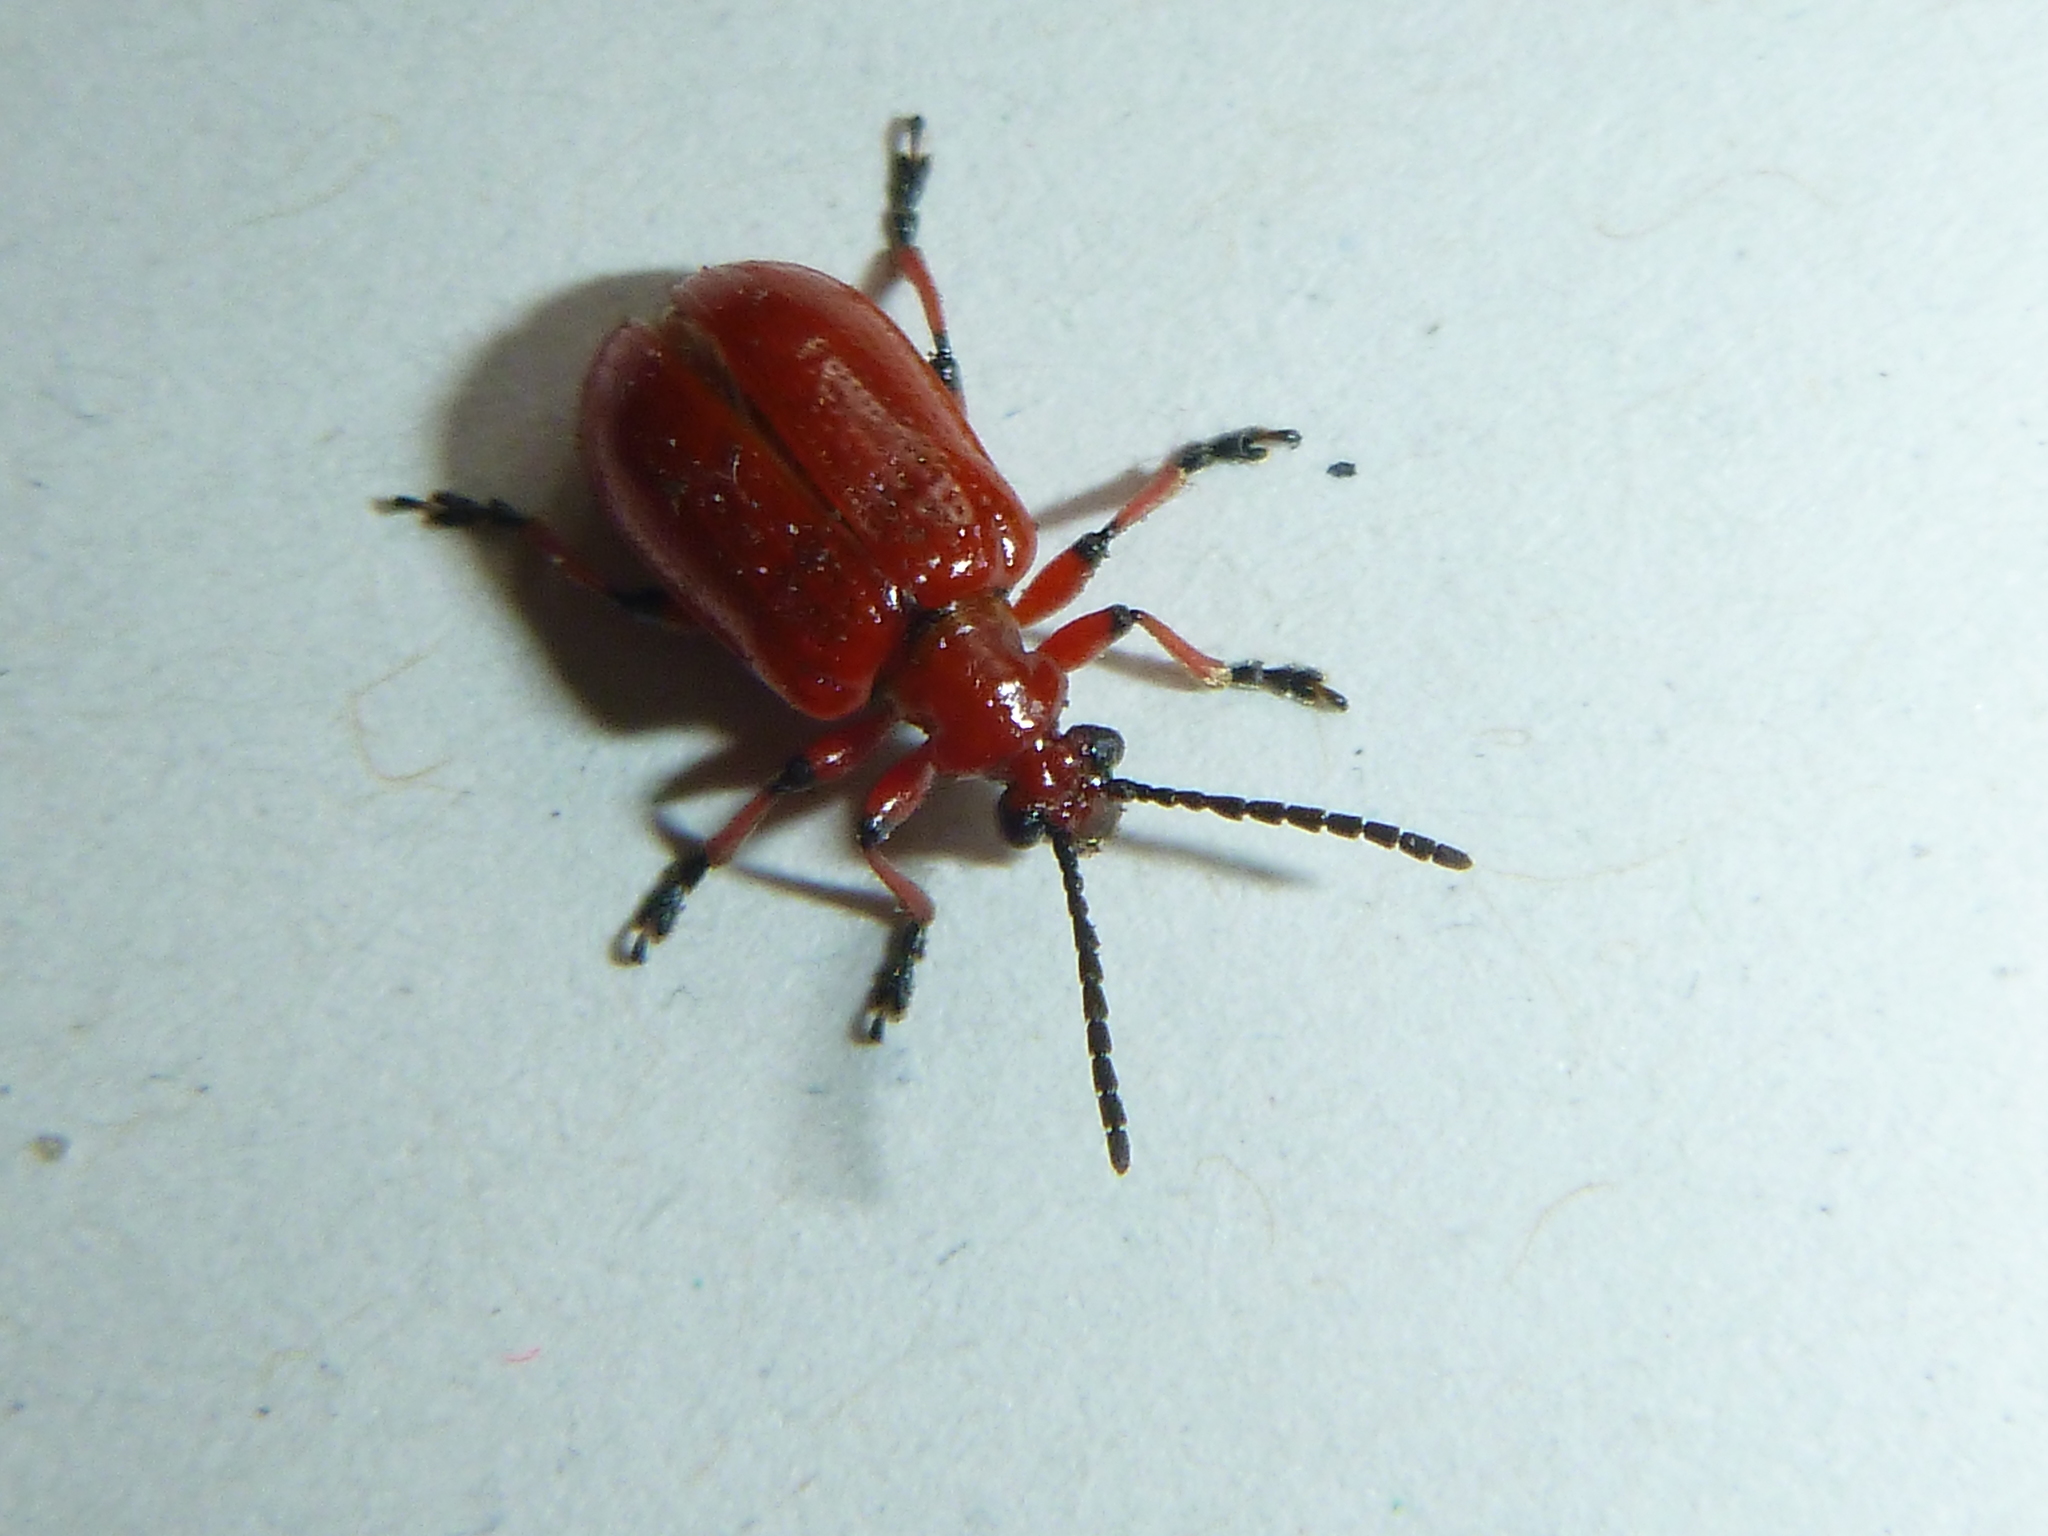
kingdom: Animalia
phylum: Arthropoda
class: Insecta
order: Coleoptera
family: Chrysomelidae
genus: Lilioceris
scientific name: Lilioceris merdigera
